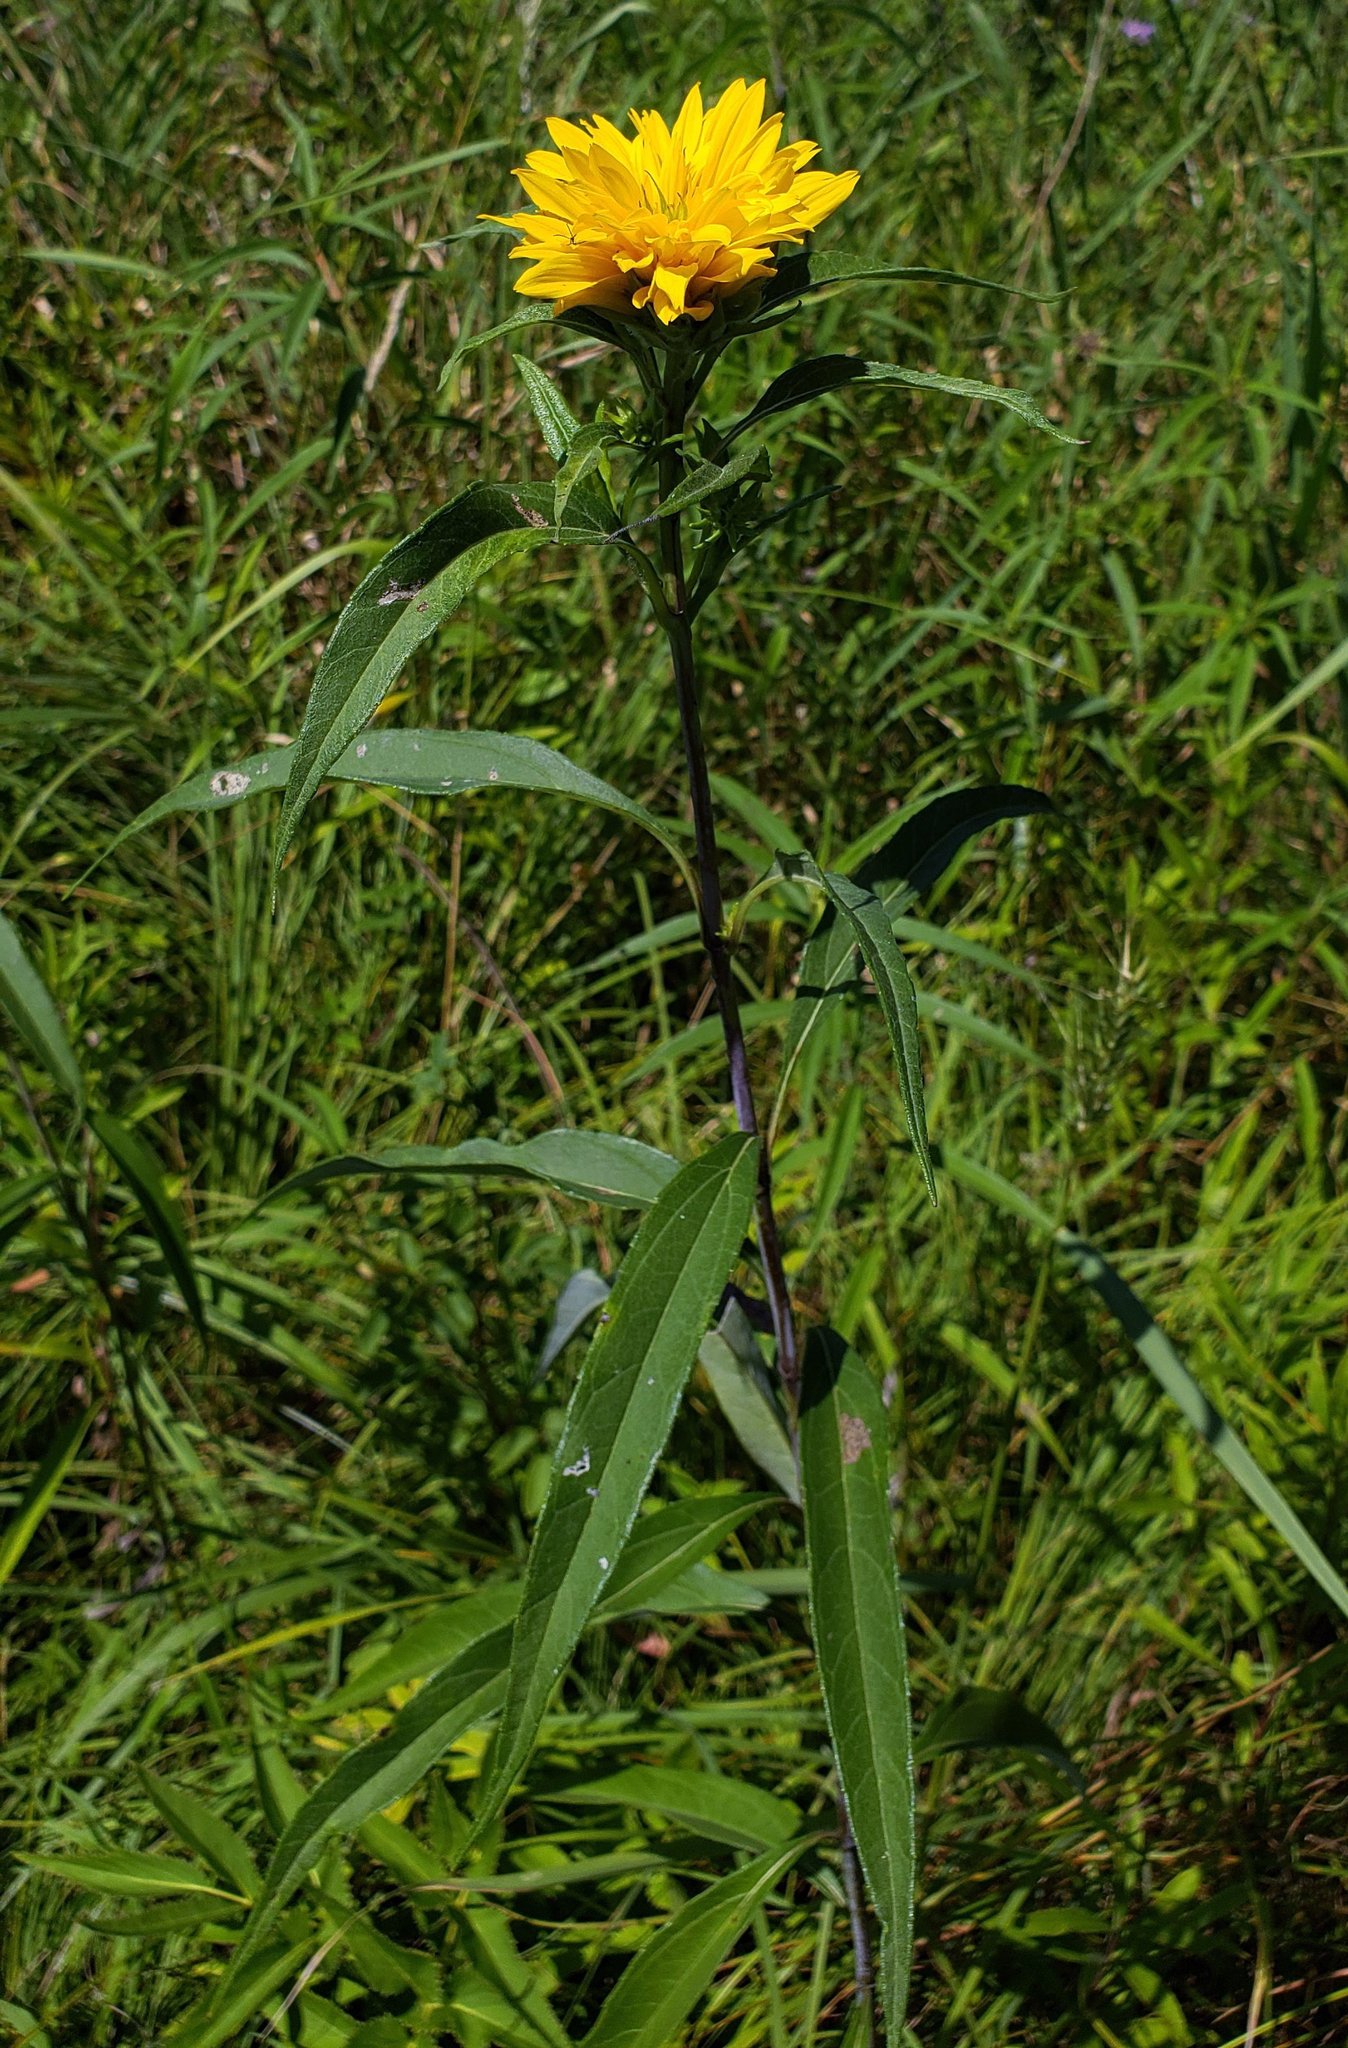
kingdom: Plantae
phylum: Tracheophyta
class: Magnoliopsida
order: Asterales
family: Asteraceae
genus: Helianthus
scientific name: Helianthus grosseserratus
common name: Sawtooth sunflower
